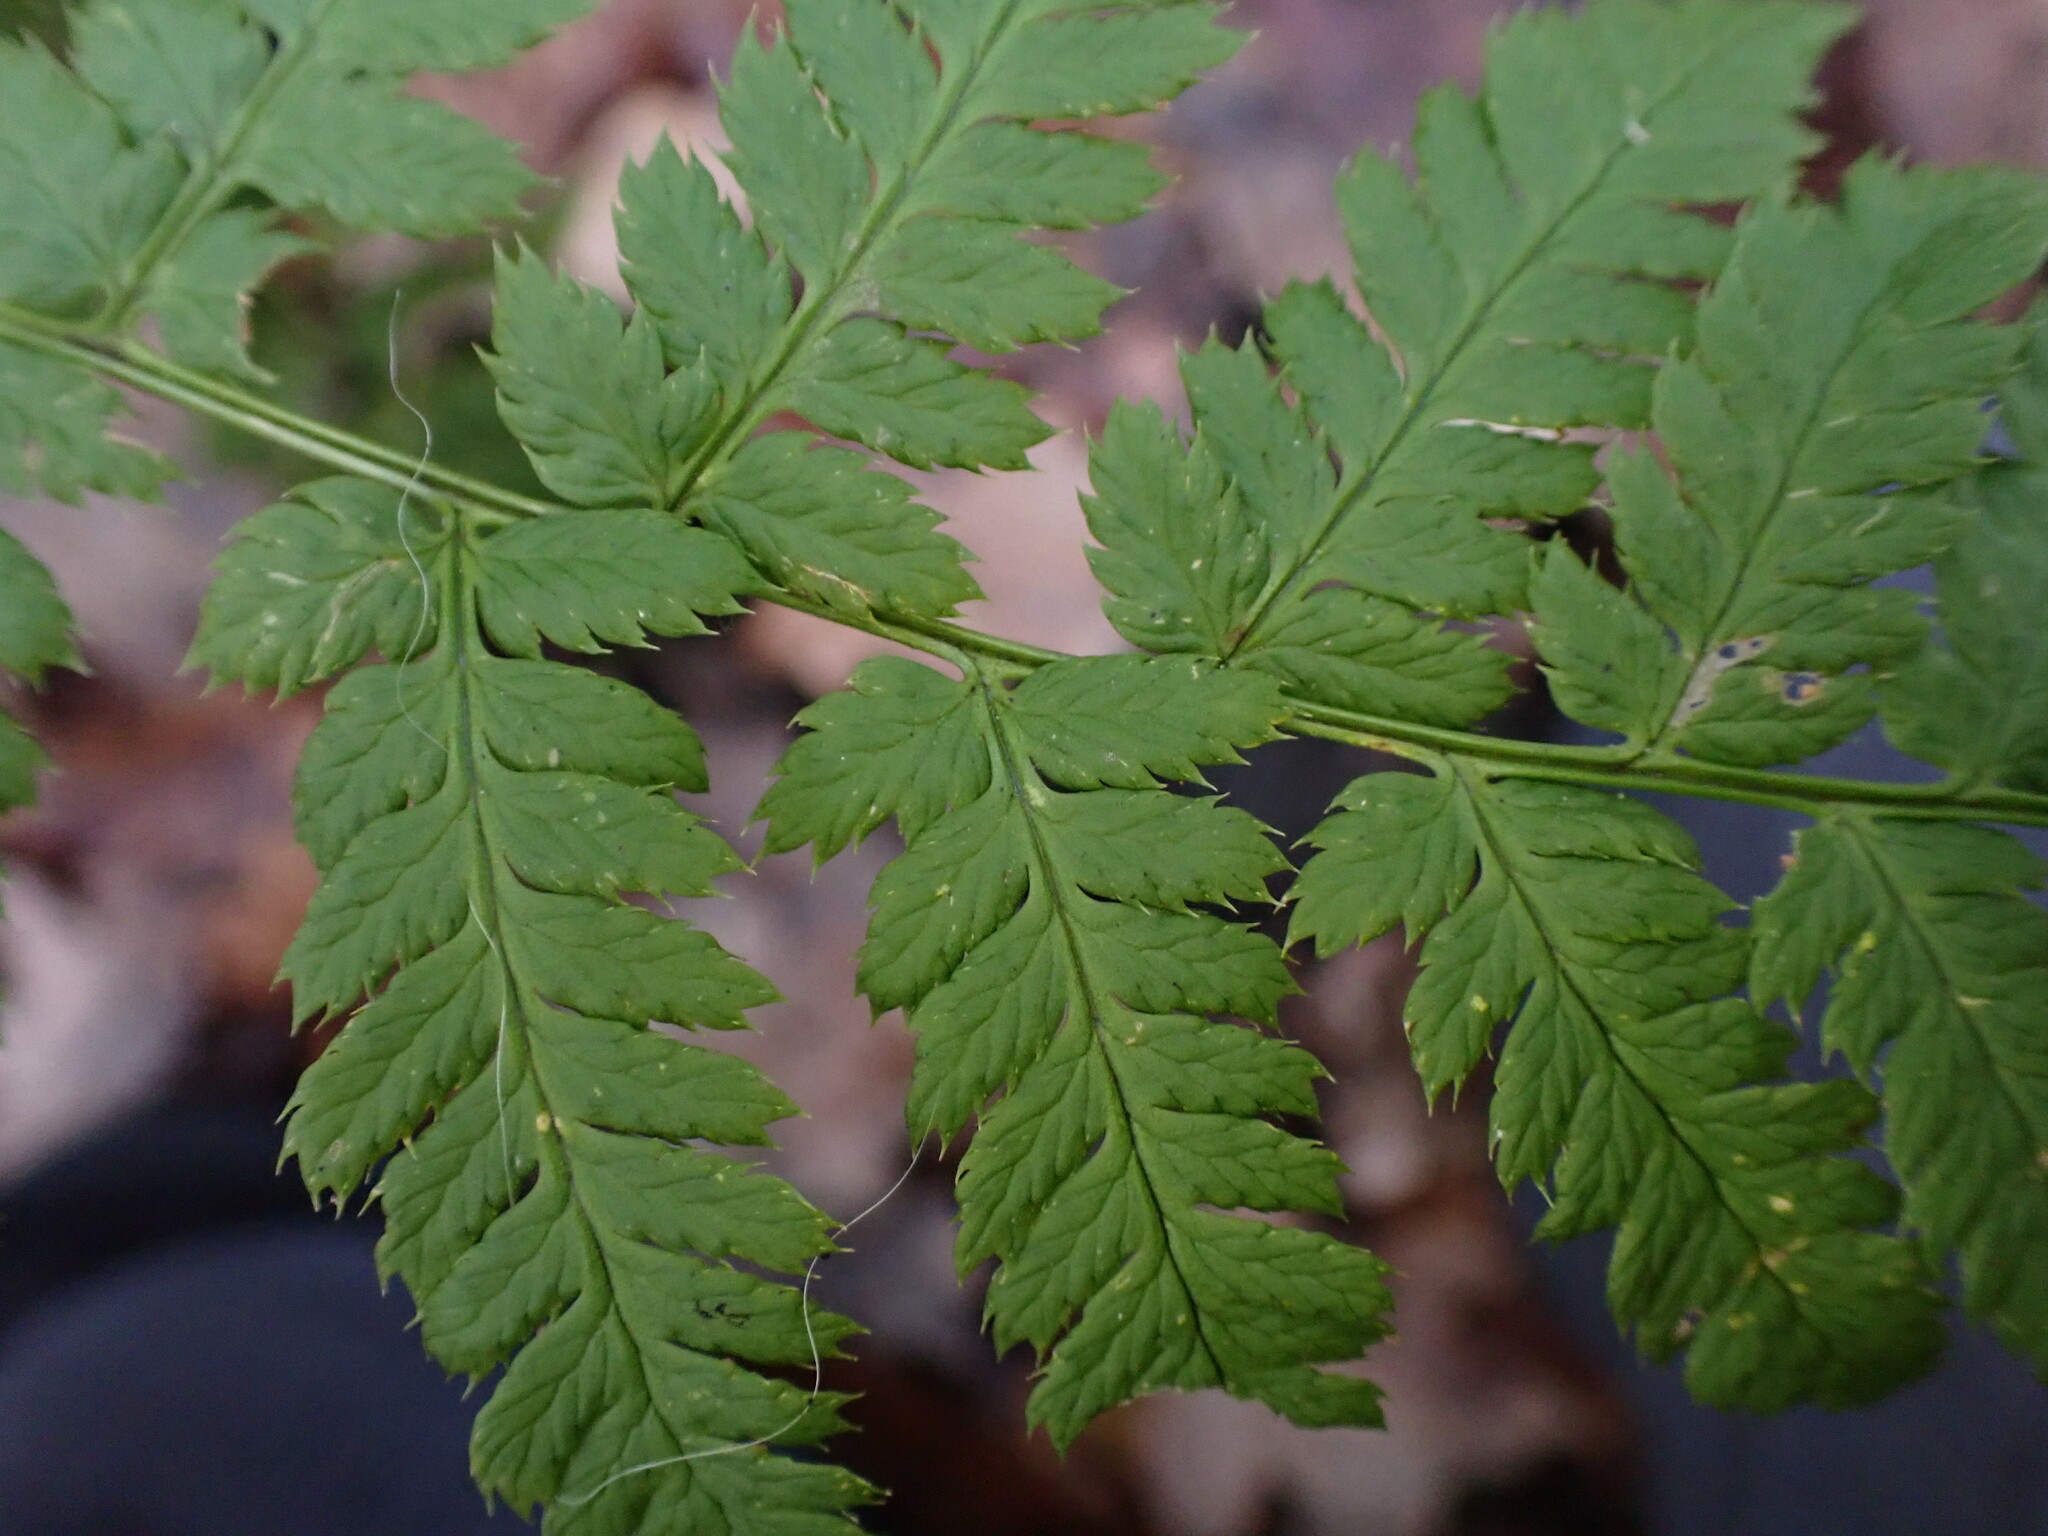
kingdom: Plantae
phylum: Tracheophyta
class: Polypodiopsida
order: Polypodiales
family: Dryopteridaceae
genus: Dryopteris
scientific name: Dryopteris carthusiana
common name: Narrow buckler-fern
